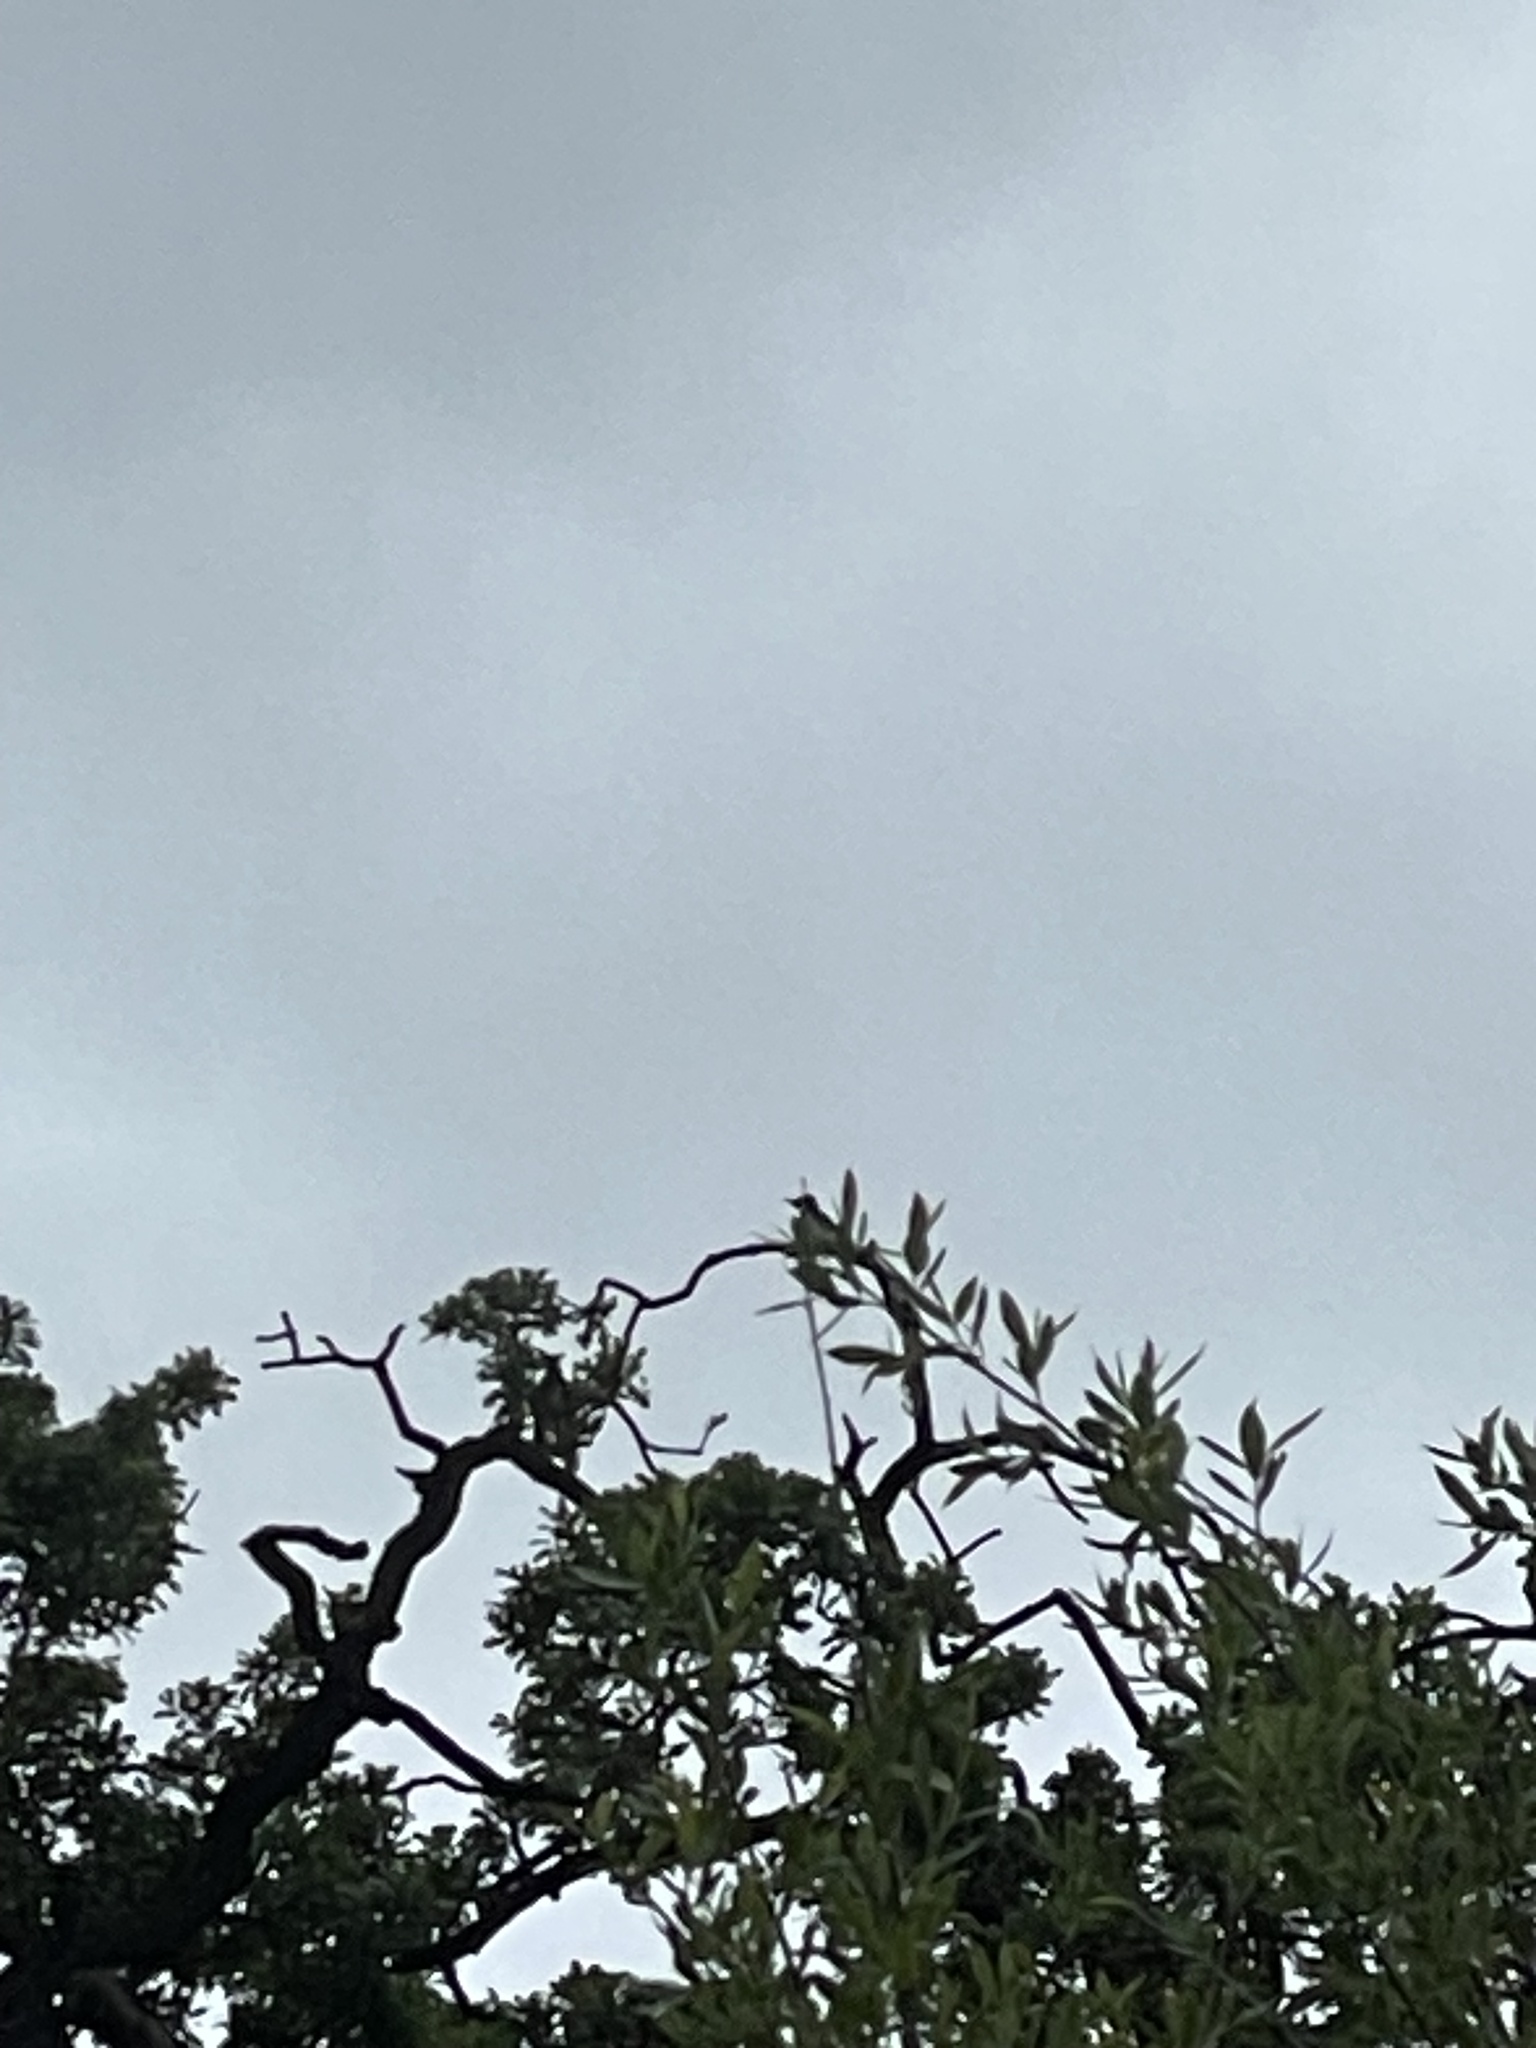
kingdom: Animalia
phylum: Chordata
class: Aves
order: Piciformes
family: Picidae
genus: Melanerpes
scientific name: Melanerpes formicivorus
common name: Acorn woodpecker
